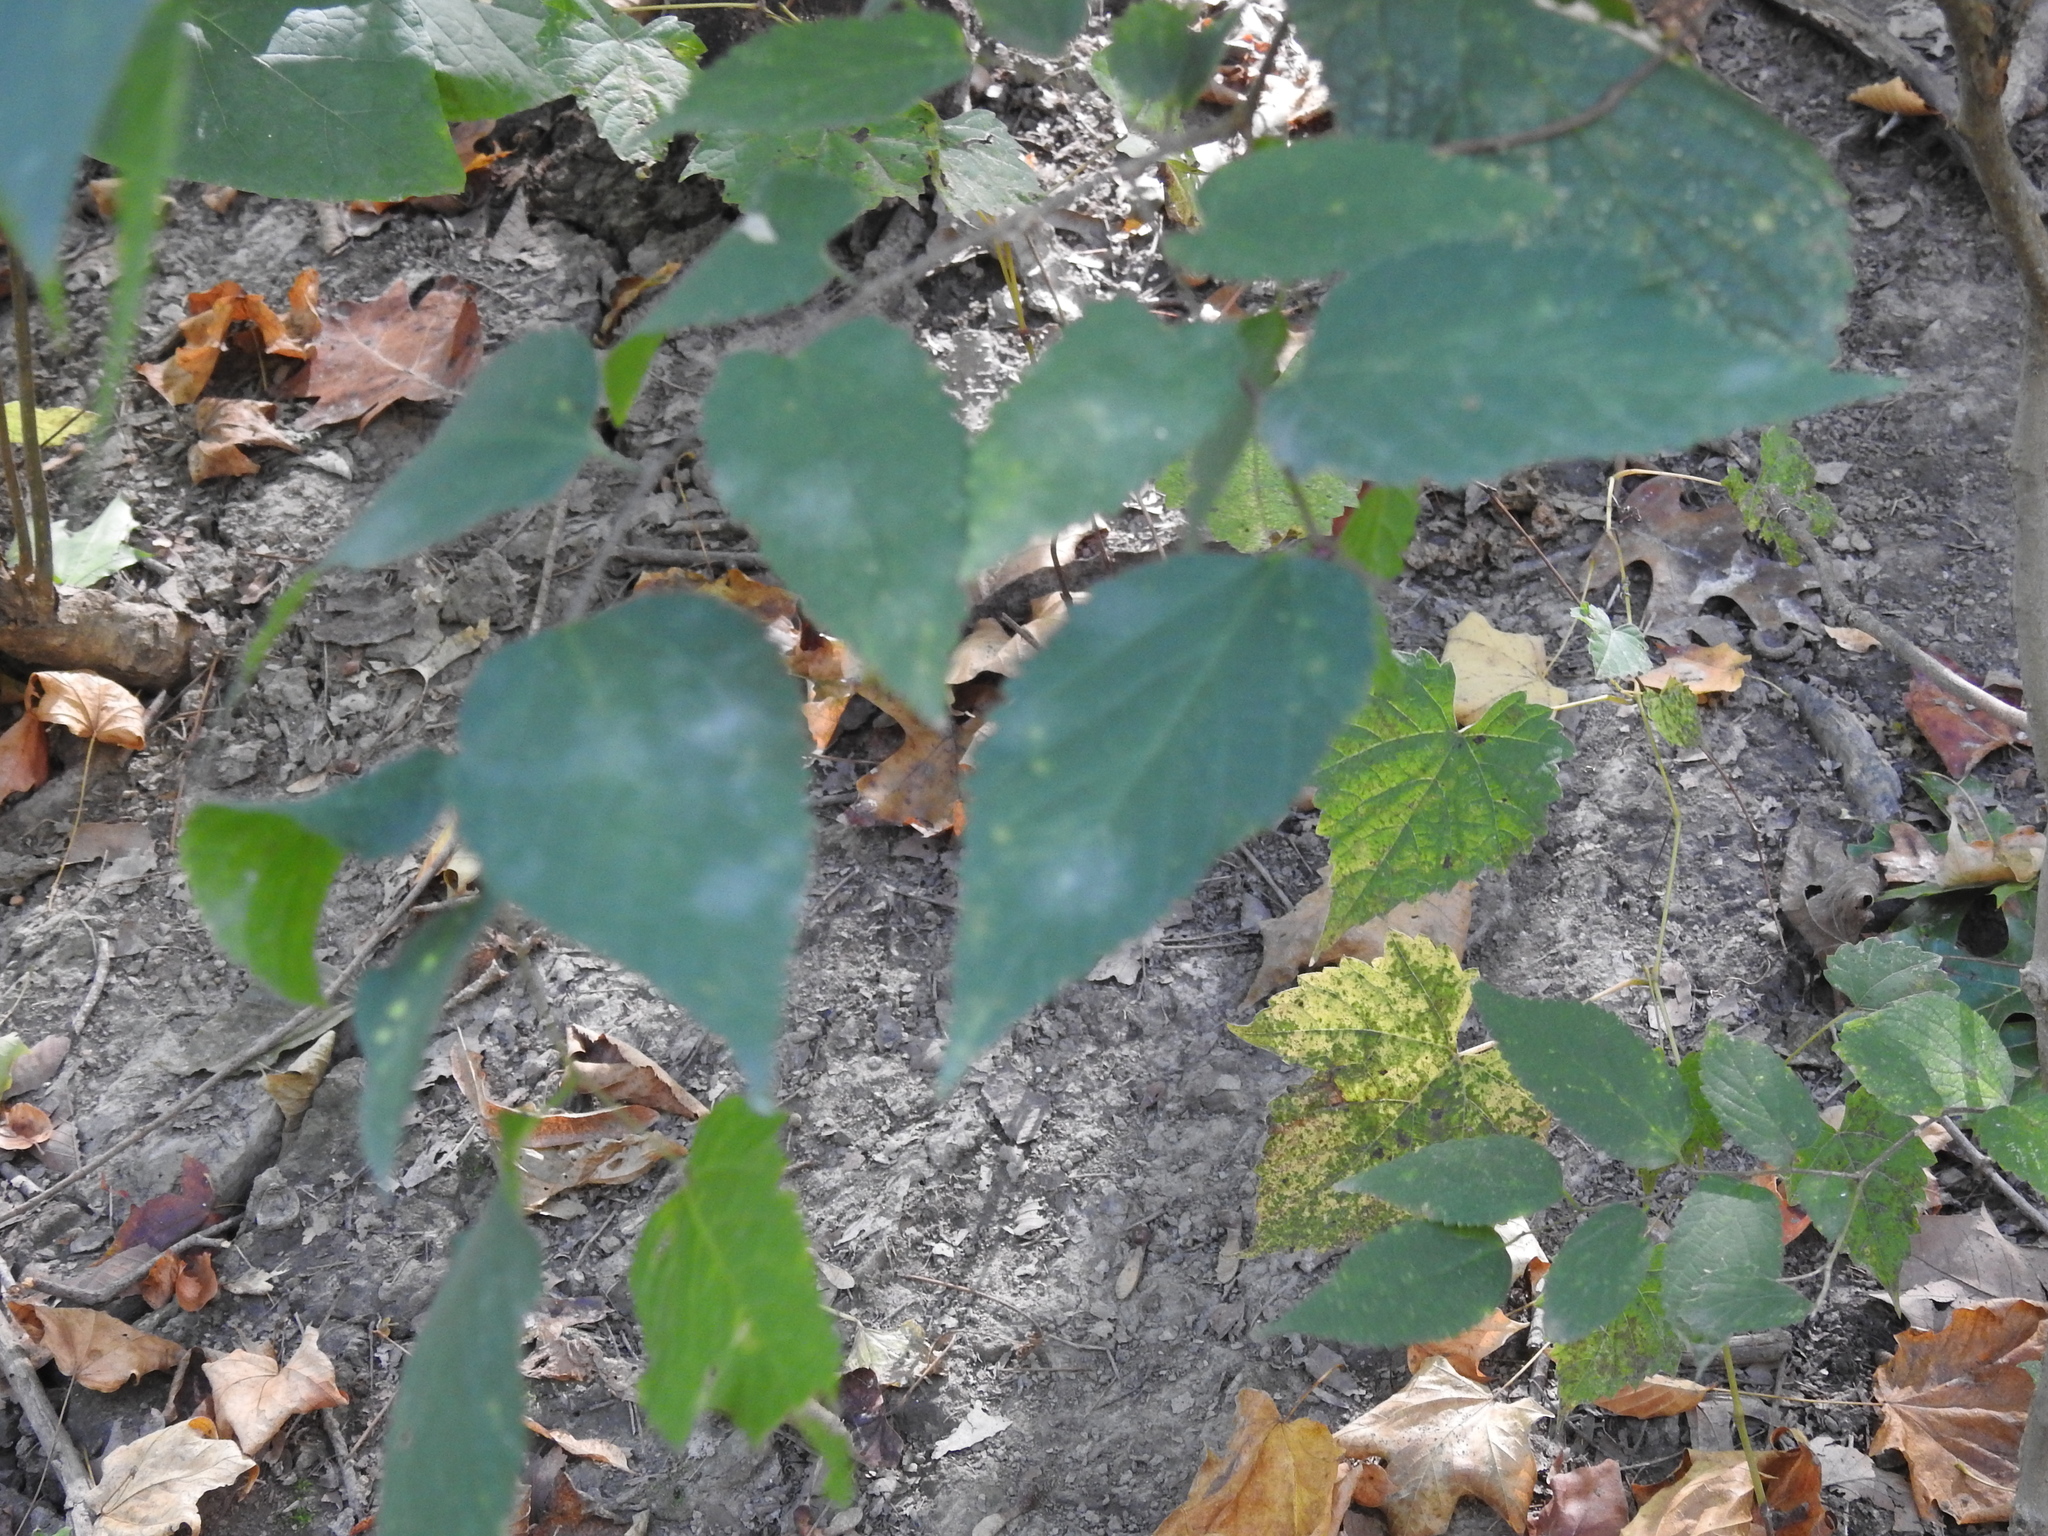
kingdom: Plantae
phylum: Tracheophyta
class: Magnoliopsida
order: Rosales
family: Cannabaceae
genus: Celtis
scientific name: Celtis occidentalis
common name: Common hackberry
